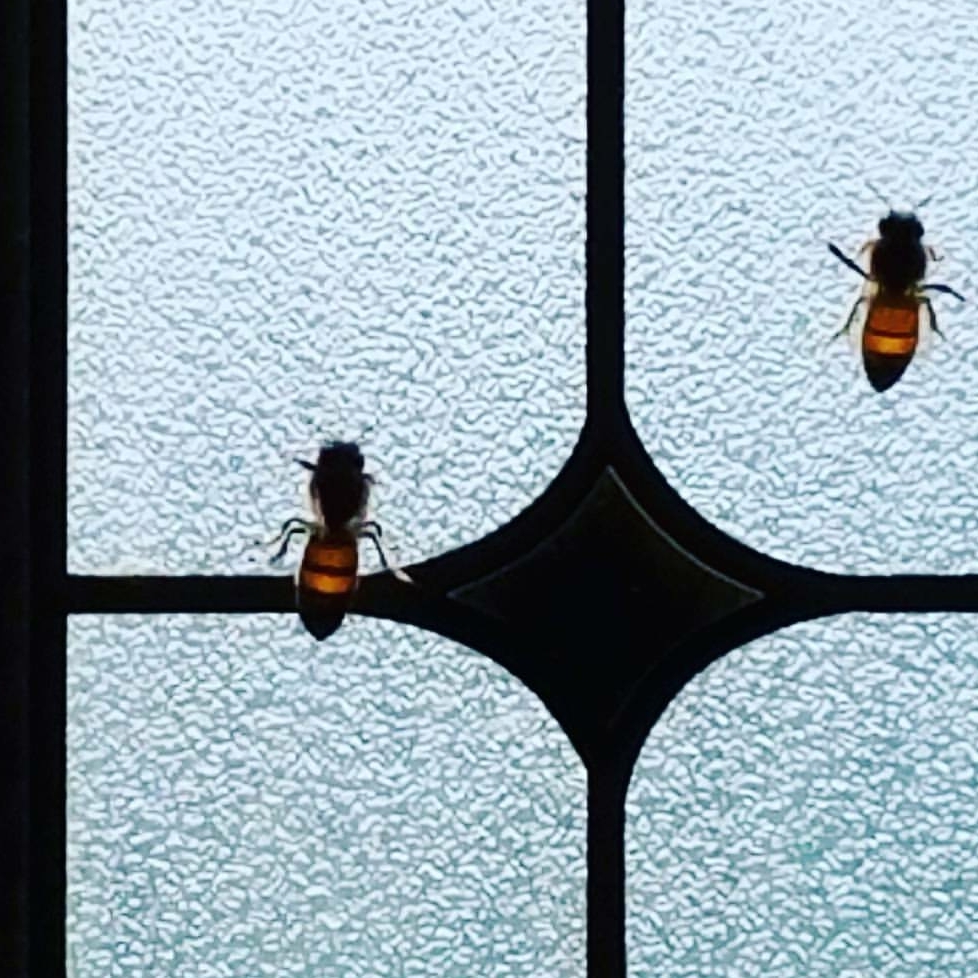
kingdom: Animalia
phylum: Arthropoda
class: Insecta
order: Hymenoptera
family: Apidae
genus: Apis
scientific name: Apis mellifera
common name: Honey bee
